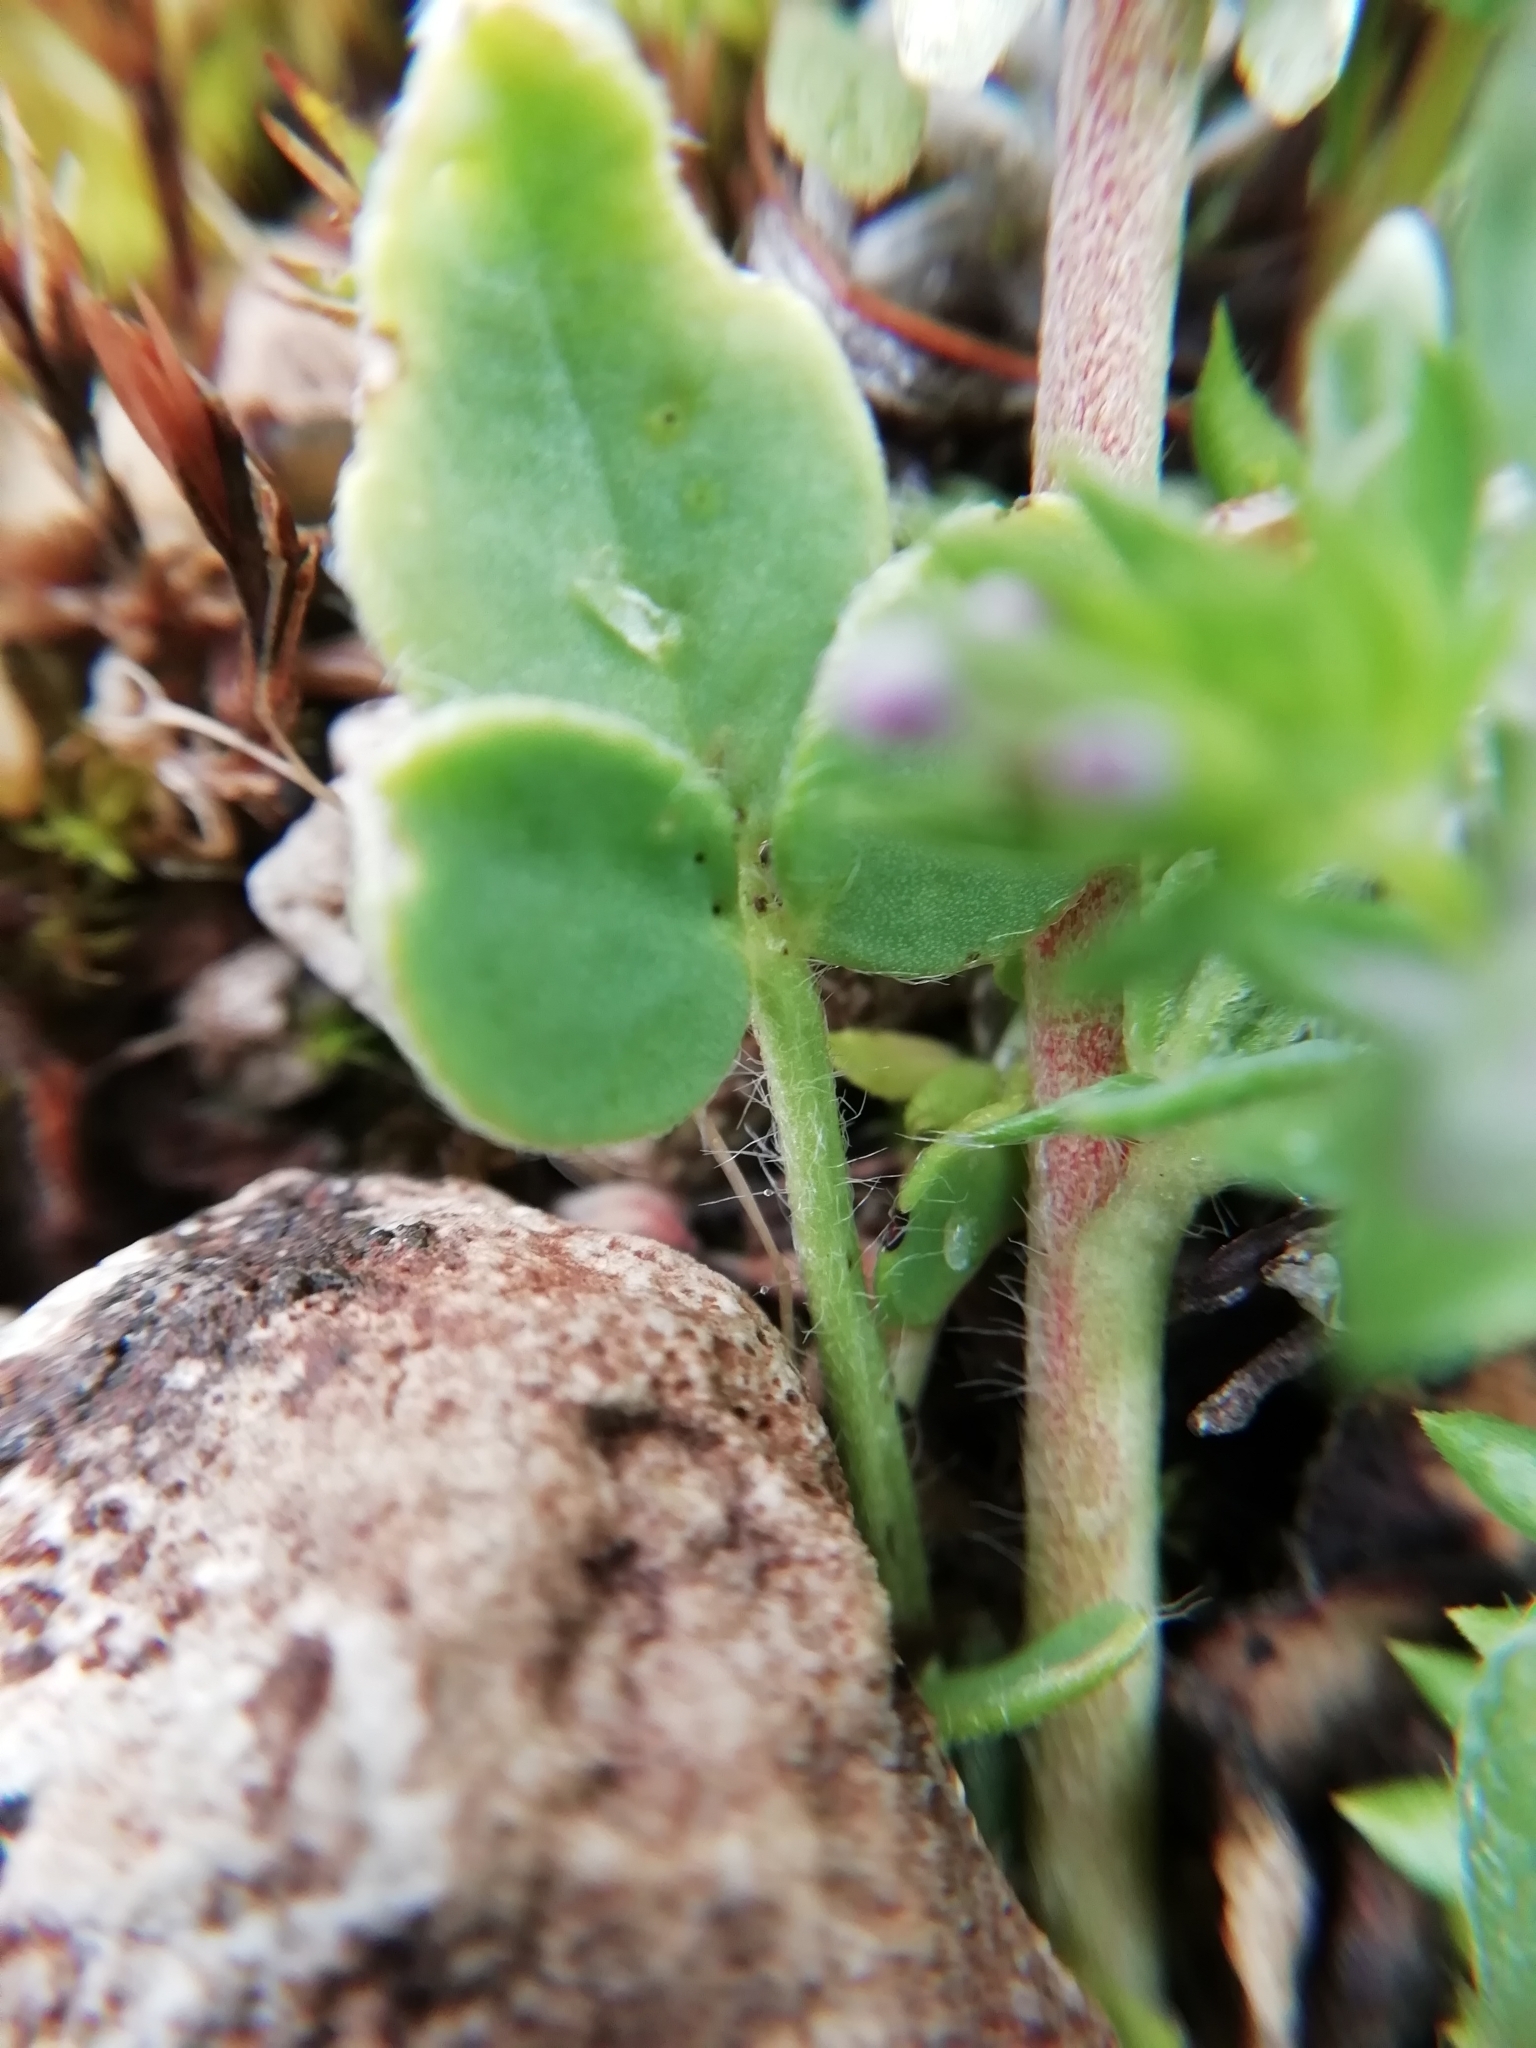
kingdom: Plantae
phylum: Tracheophyta
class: Magnoliopsida
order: Fabales
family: Fabaceae
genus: Anthyllis
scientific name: Anthyllis vulneraria
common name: Kidney vetch
